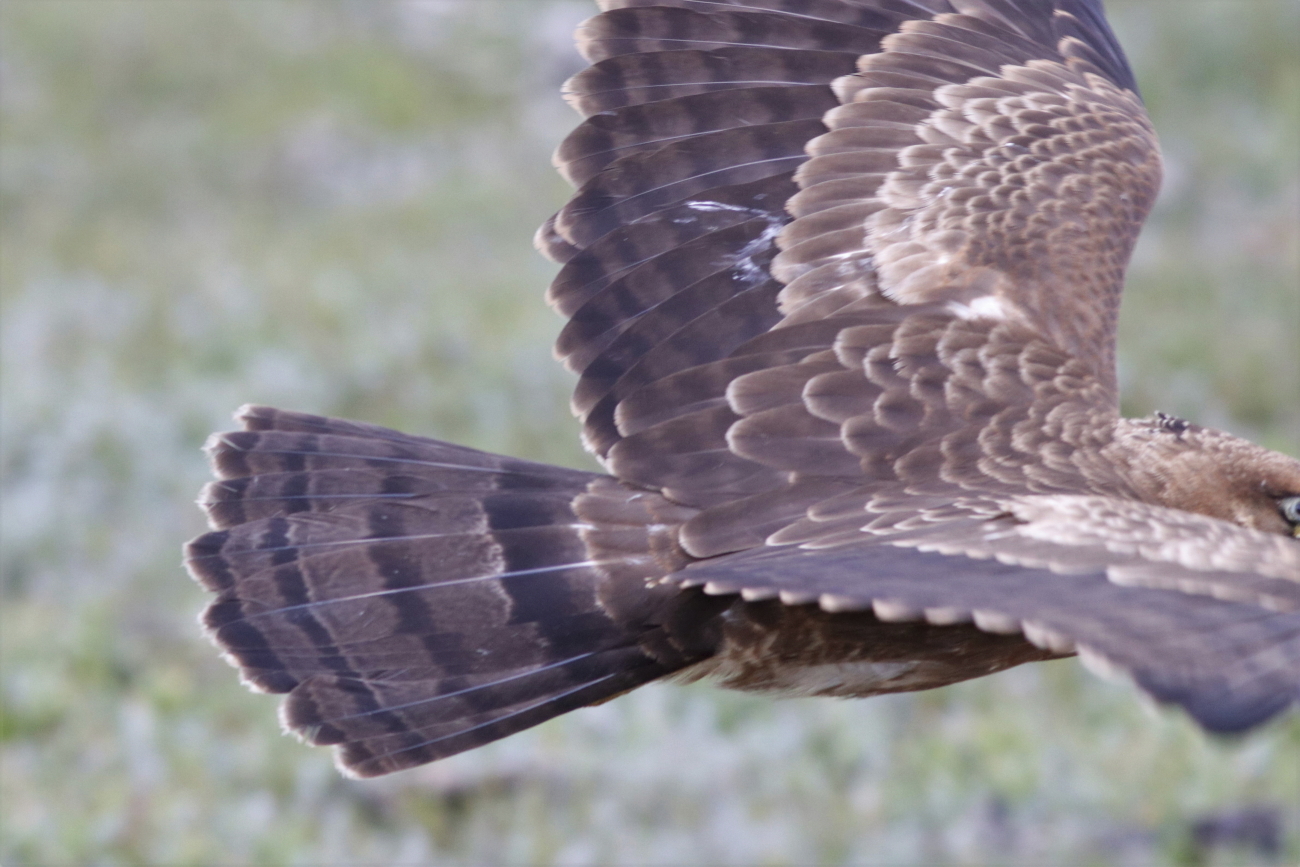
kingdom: Animalia
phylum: Chordata
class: Aves
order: Accipitriformes
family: Accipitridae
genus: Polyboroides
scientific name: Polyboroides typus
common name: African harrier-hawk
